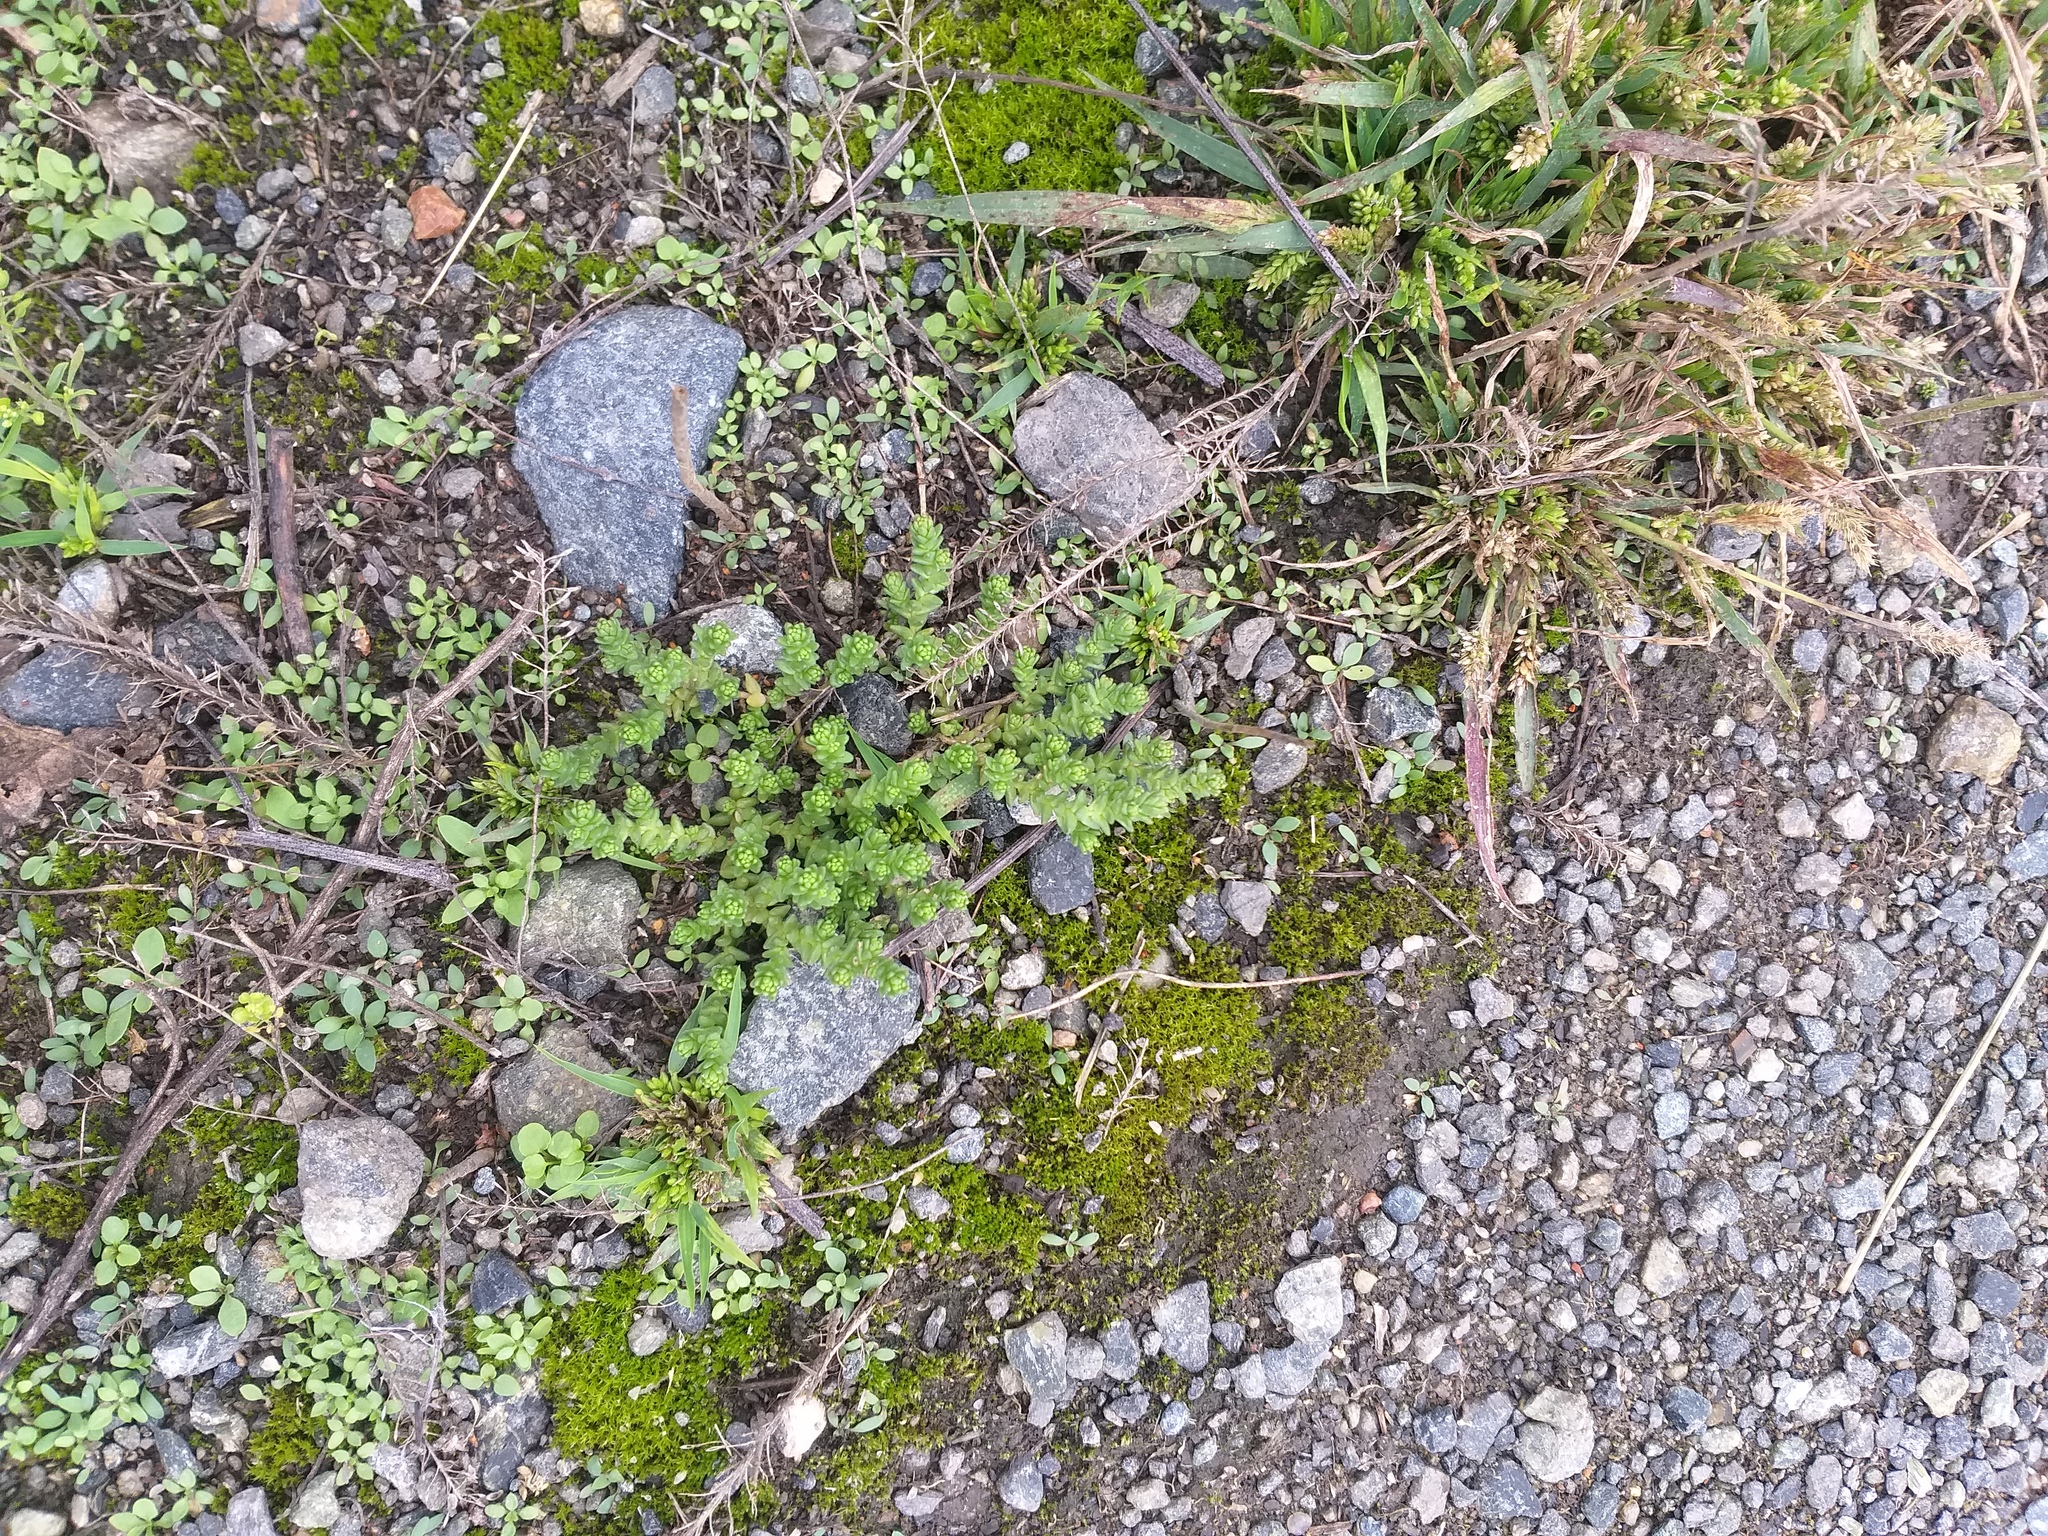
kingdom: Plantae
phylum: Tracheophyta
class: Magnoliopsida
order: Saxifragales
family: Crassulaceae
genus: Sedum
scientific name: Sedum acre
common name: Biting stonecrop
